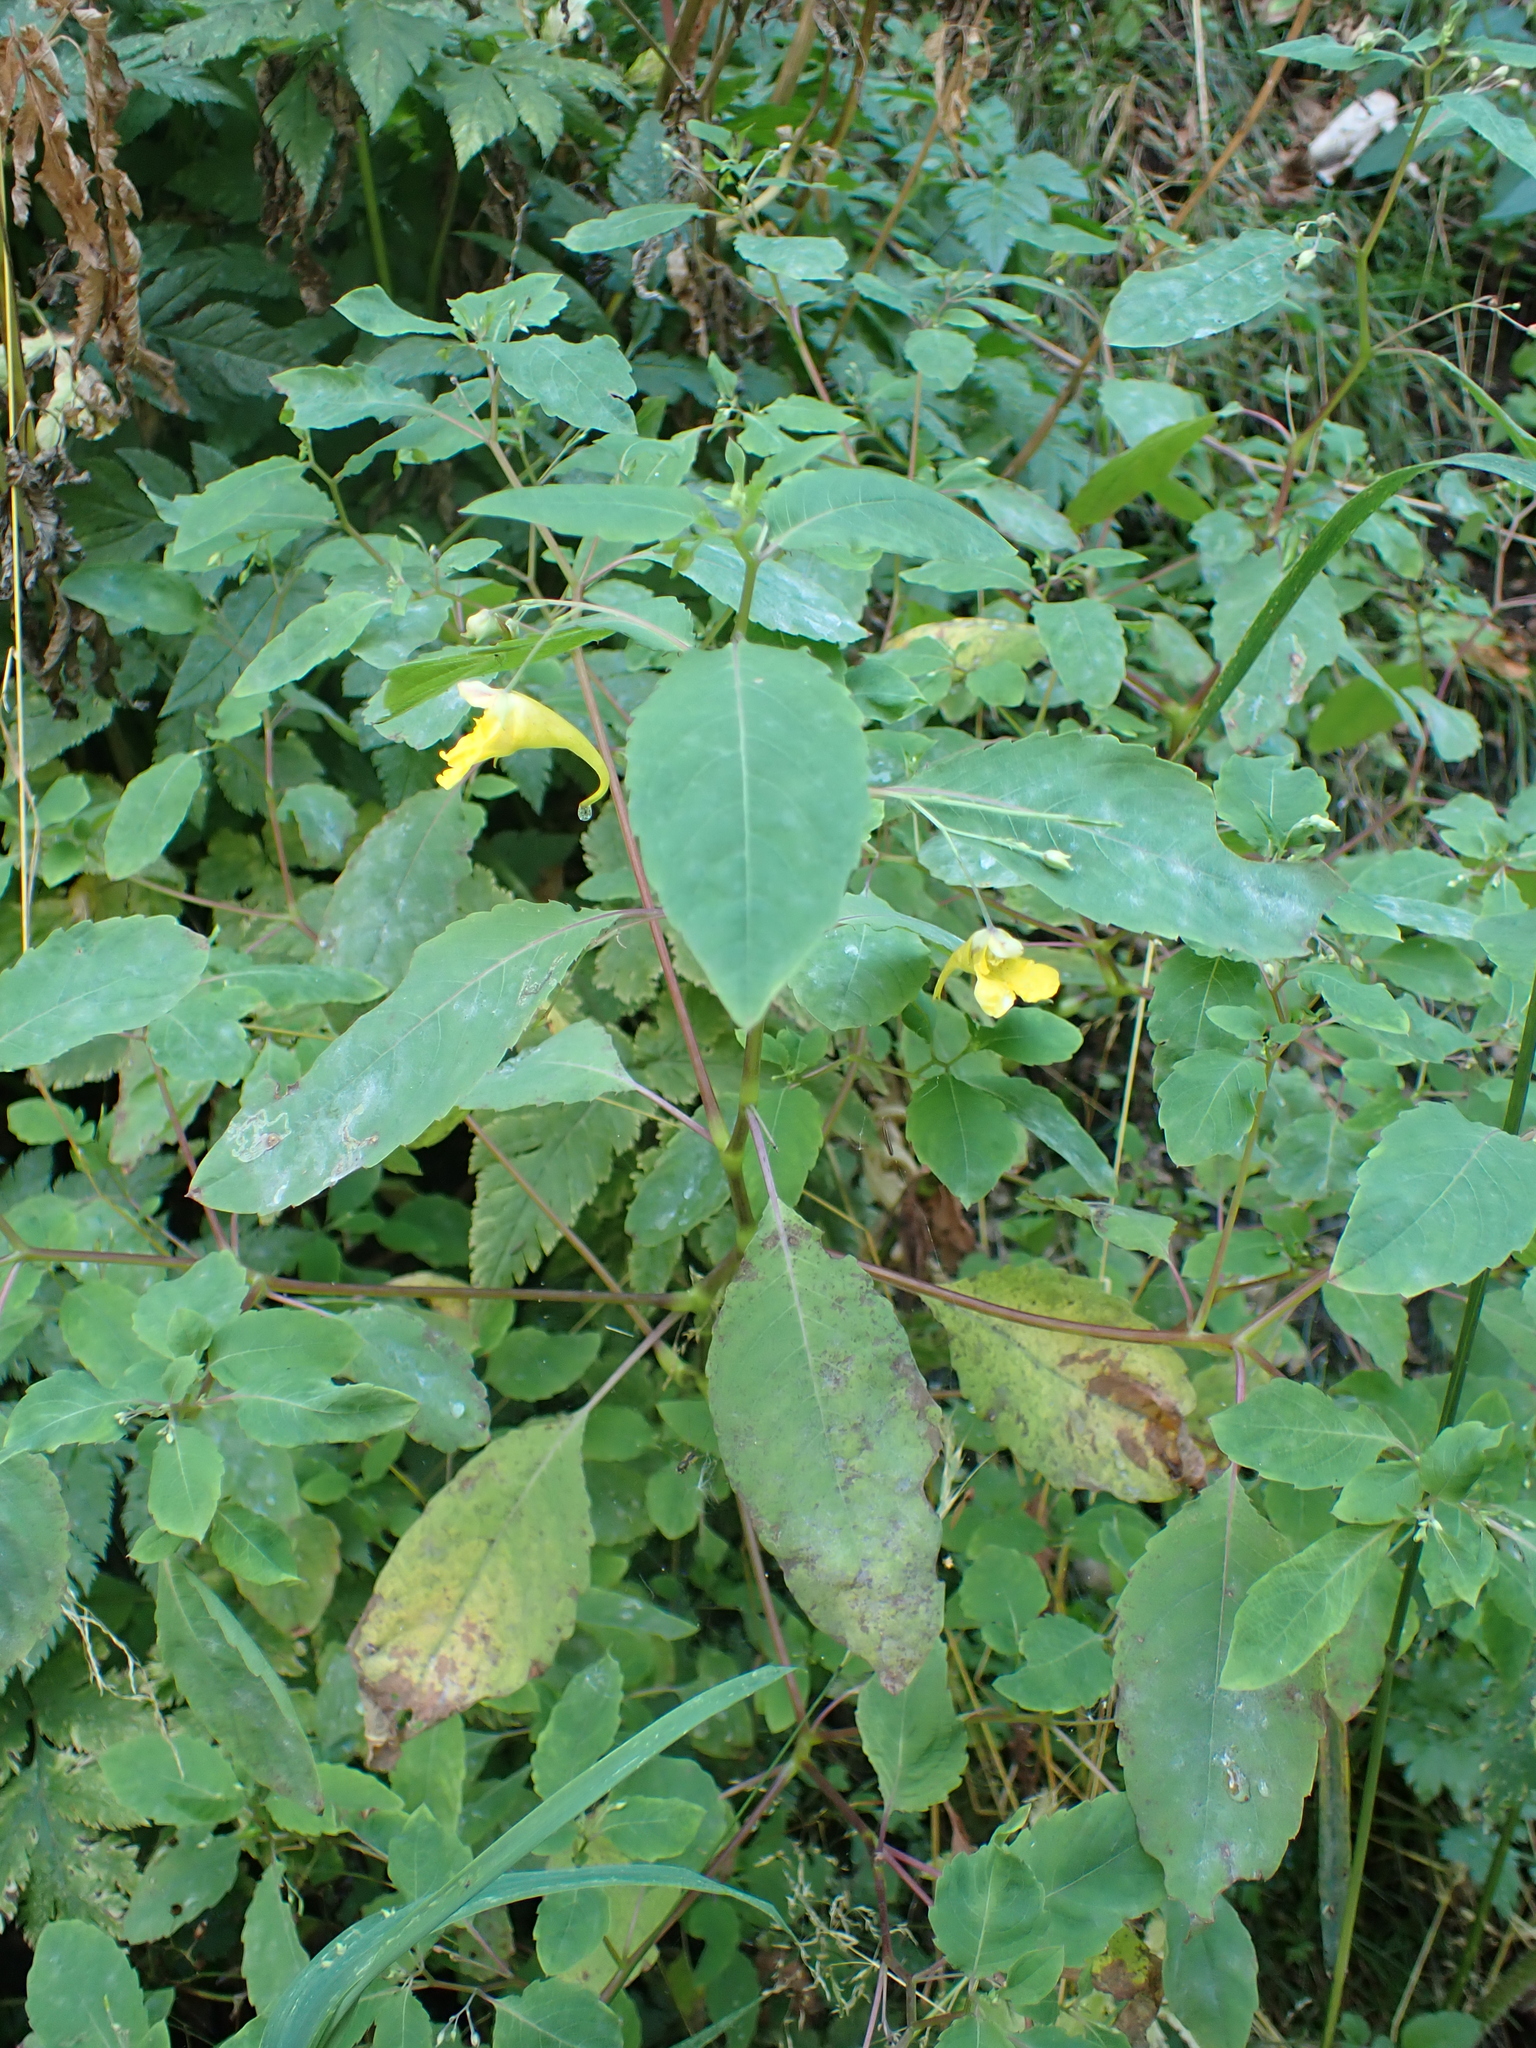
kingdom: Plantae
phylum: Tracheophyta
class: Magnoliopsida
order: Ericales
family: Balsaminaceae
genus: Impatiens
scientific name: Impatiens noli-tangere
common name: Touch-me-not balsam
